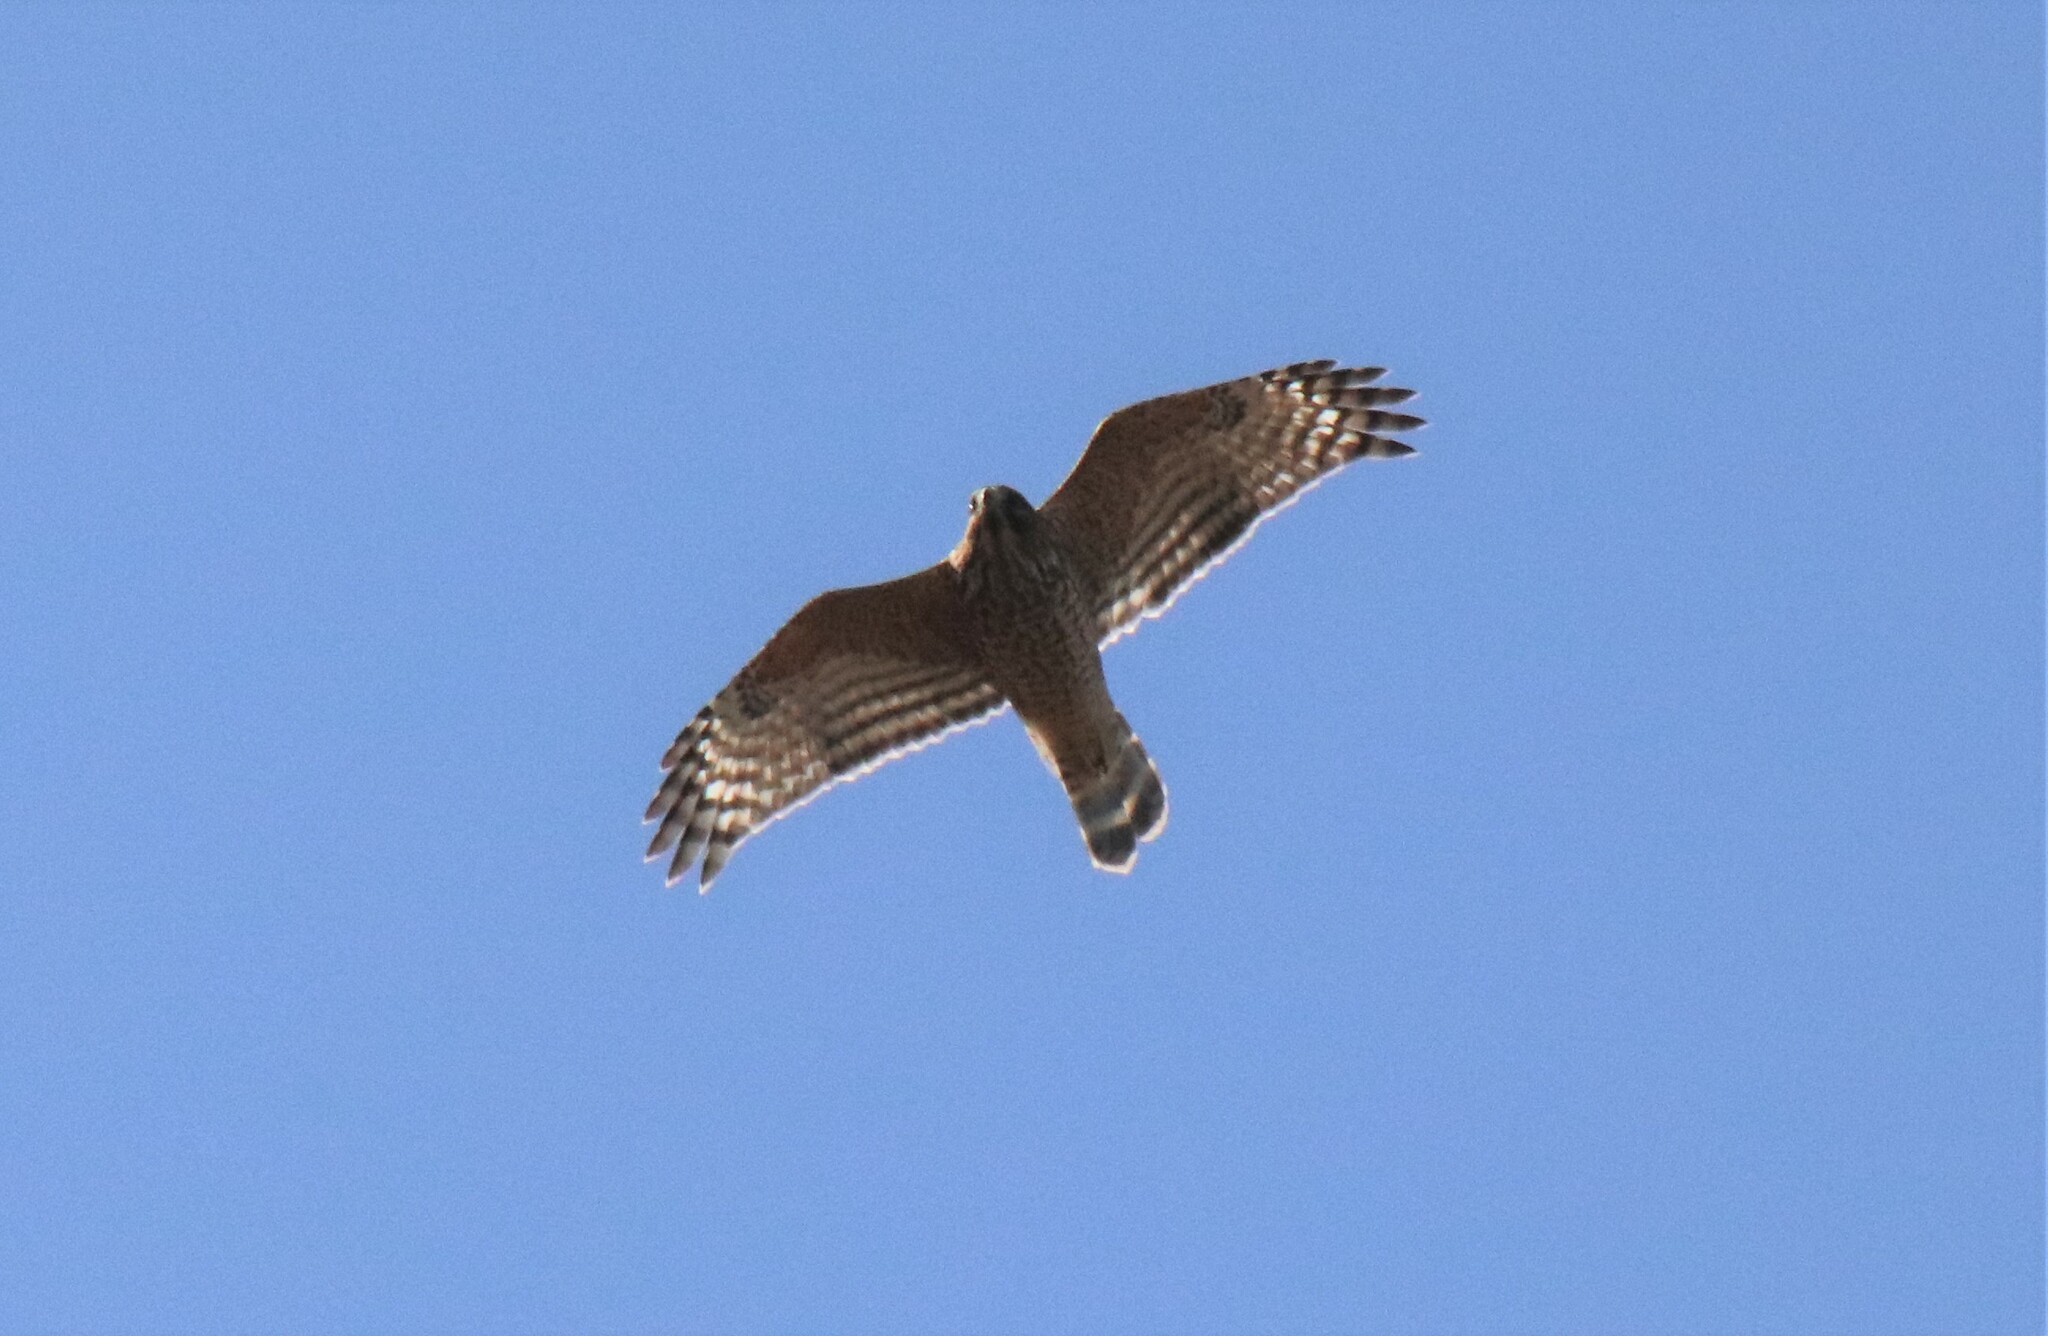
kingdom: Animalia
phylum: Chordata
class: Aves
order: Accipitriformes
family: Accipitridae
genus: Buteo
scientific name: Buteo lineatus
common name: Red-shouldered hawk
